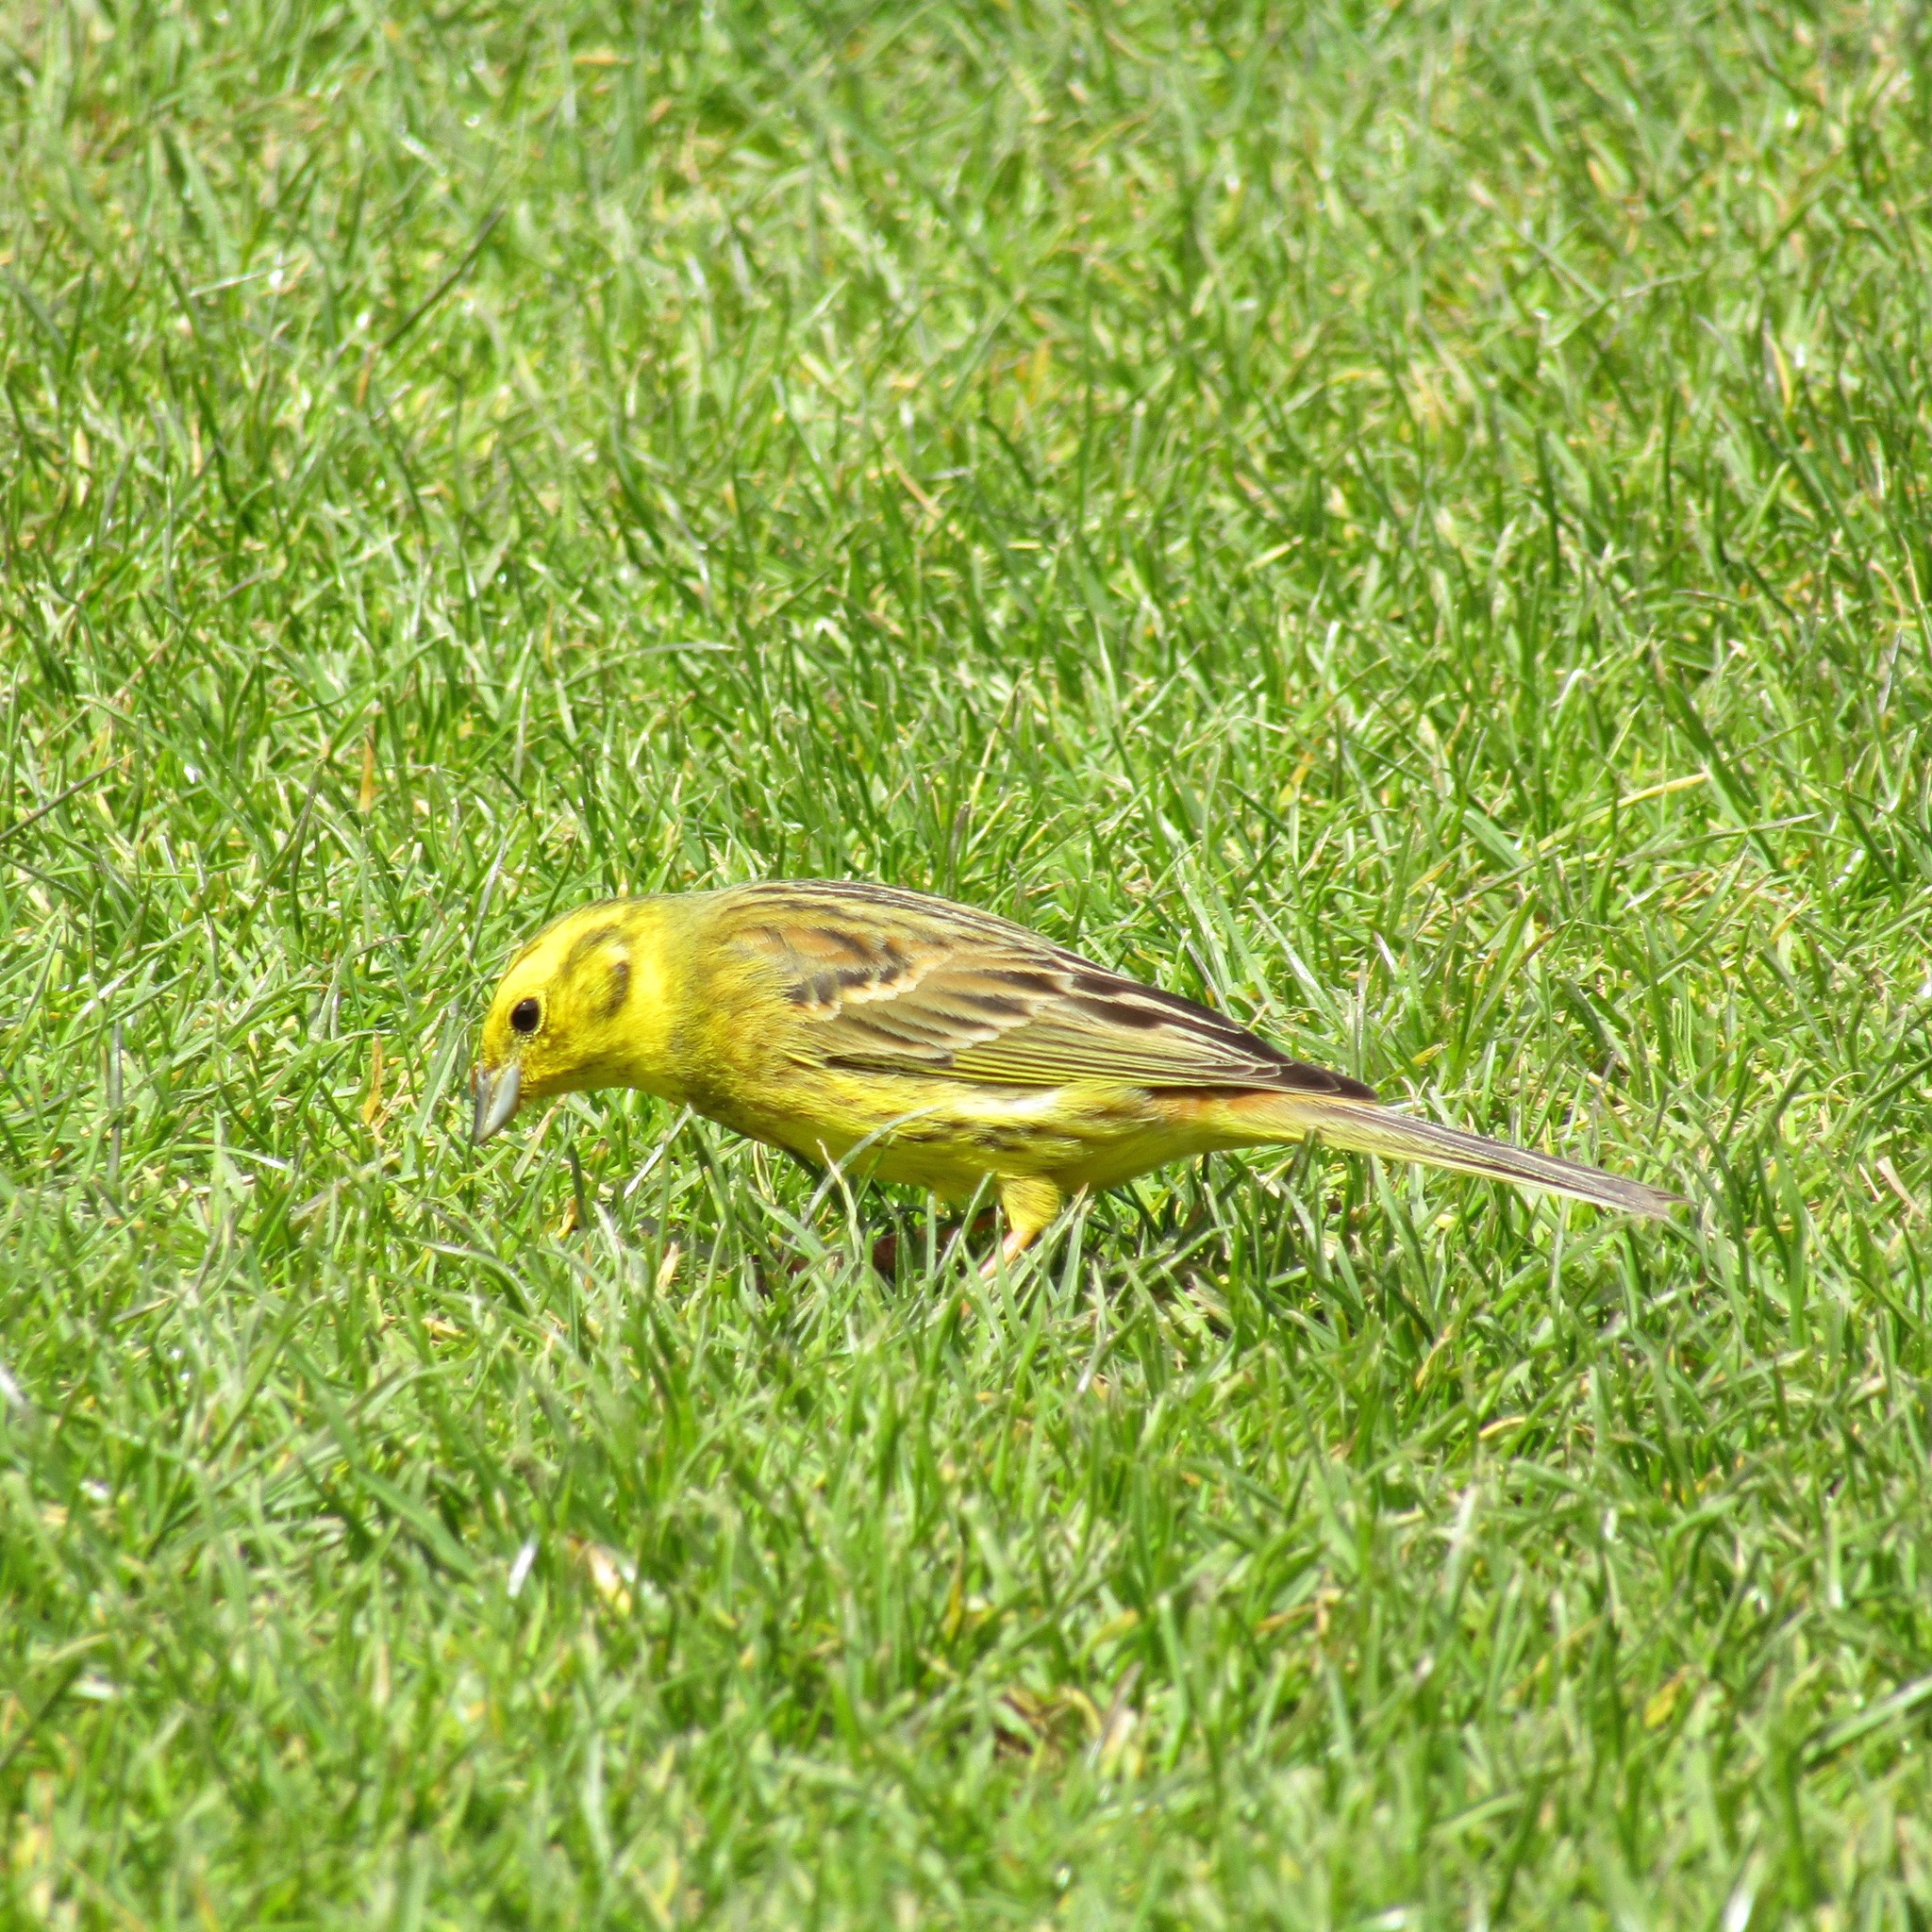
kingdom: Animalia
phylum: Chordata
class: Aves
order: Passeriformes
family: Emberizidae
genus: Emberiza
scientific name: Emberiza citrinella
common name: Yellowhammer
